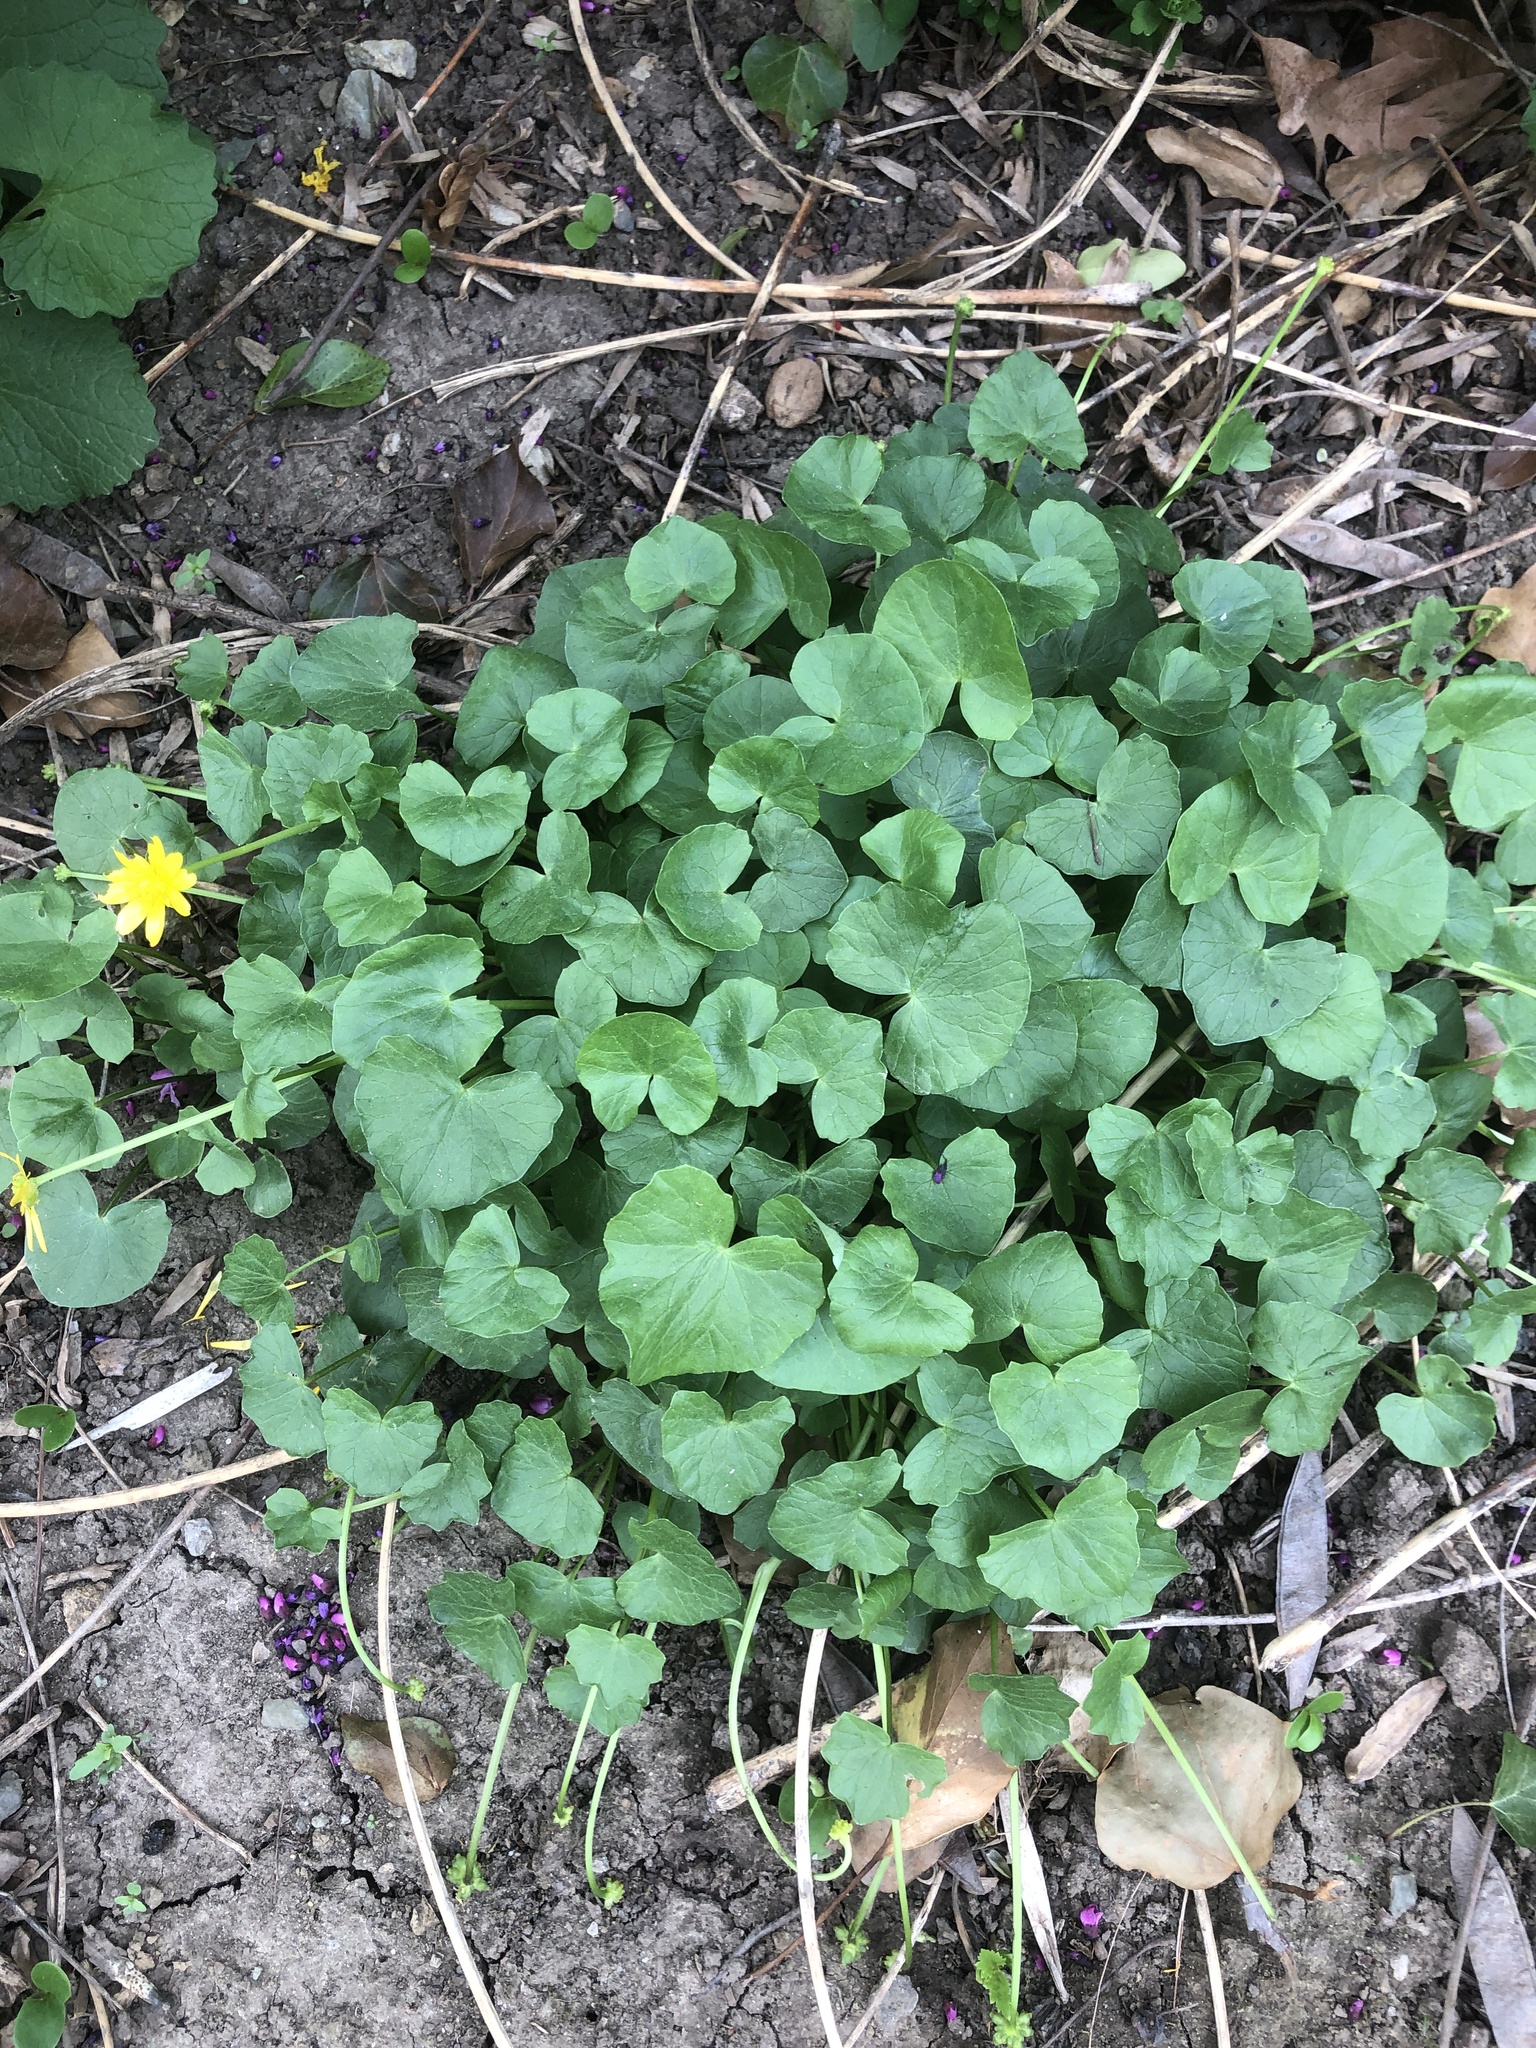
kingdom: Plantae
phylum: Tracheophyta
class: Magnoliopsida
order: Ranunculales
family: Ranunculaceae
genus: Ficaria
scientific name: Ficaria verna
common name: Lesser celandine
